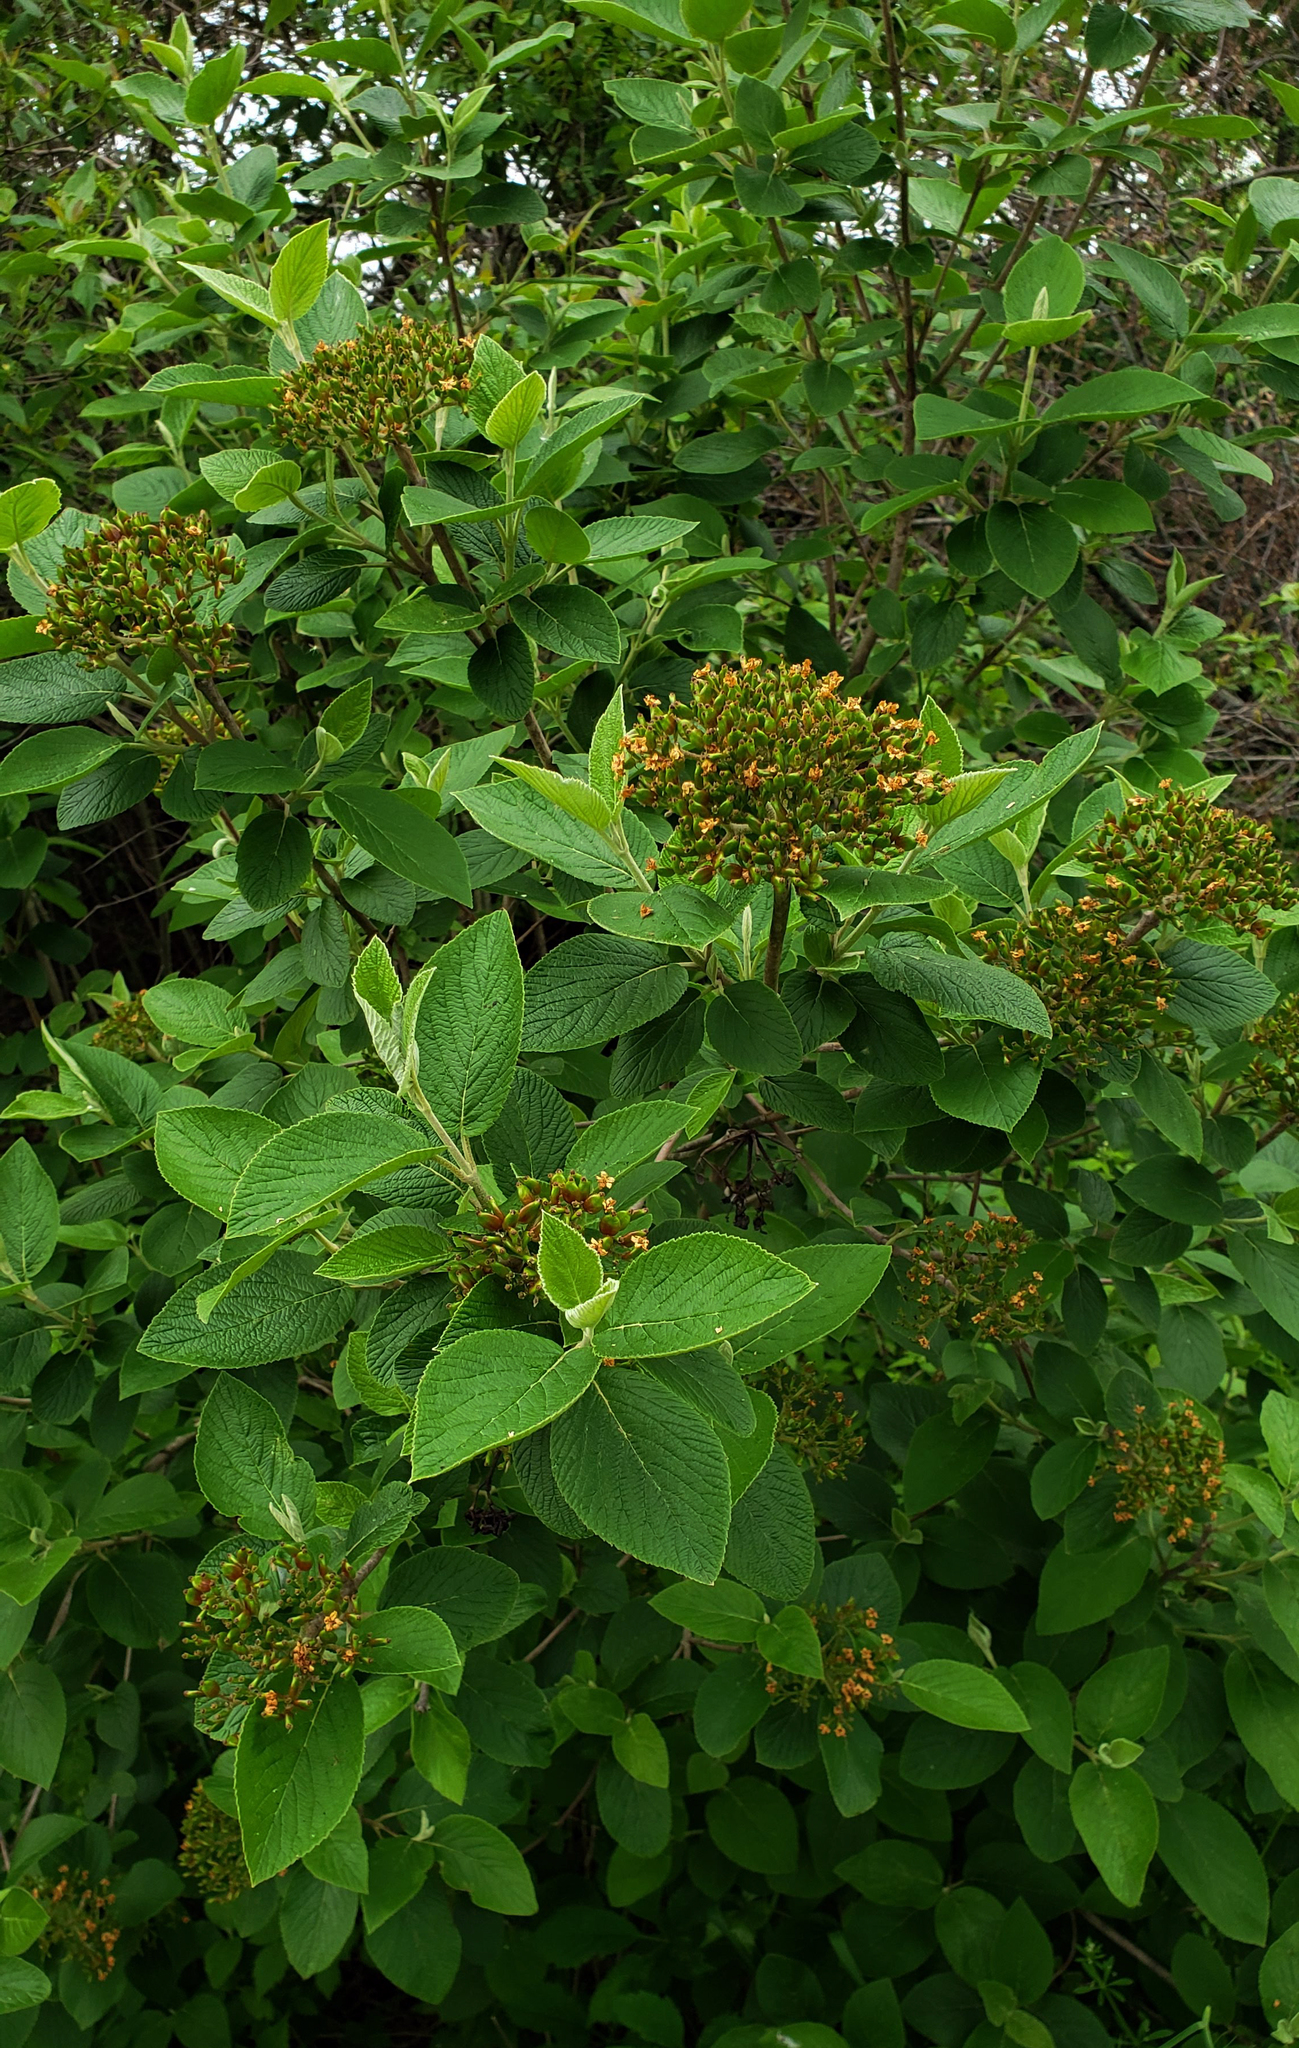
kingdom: Plantae
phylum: Tracheophyta
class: Magnoliopsida
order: Dipsacales
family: Viburnaceae
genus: Viburnum
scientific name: Viburnum lantana
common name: Wayfaring tree
